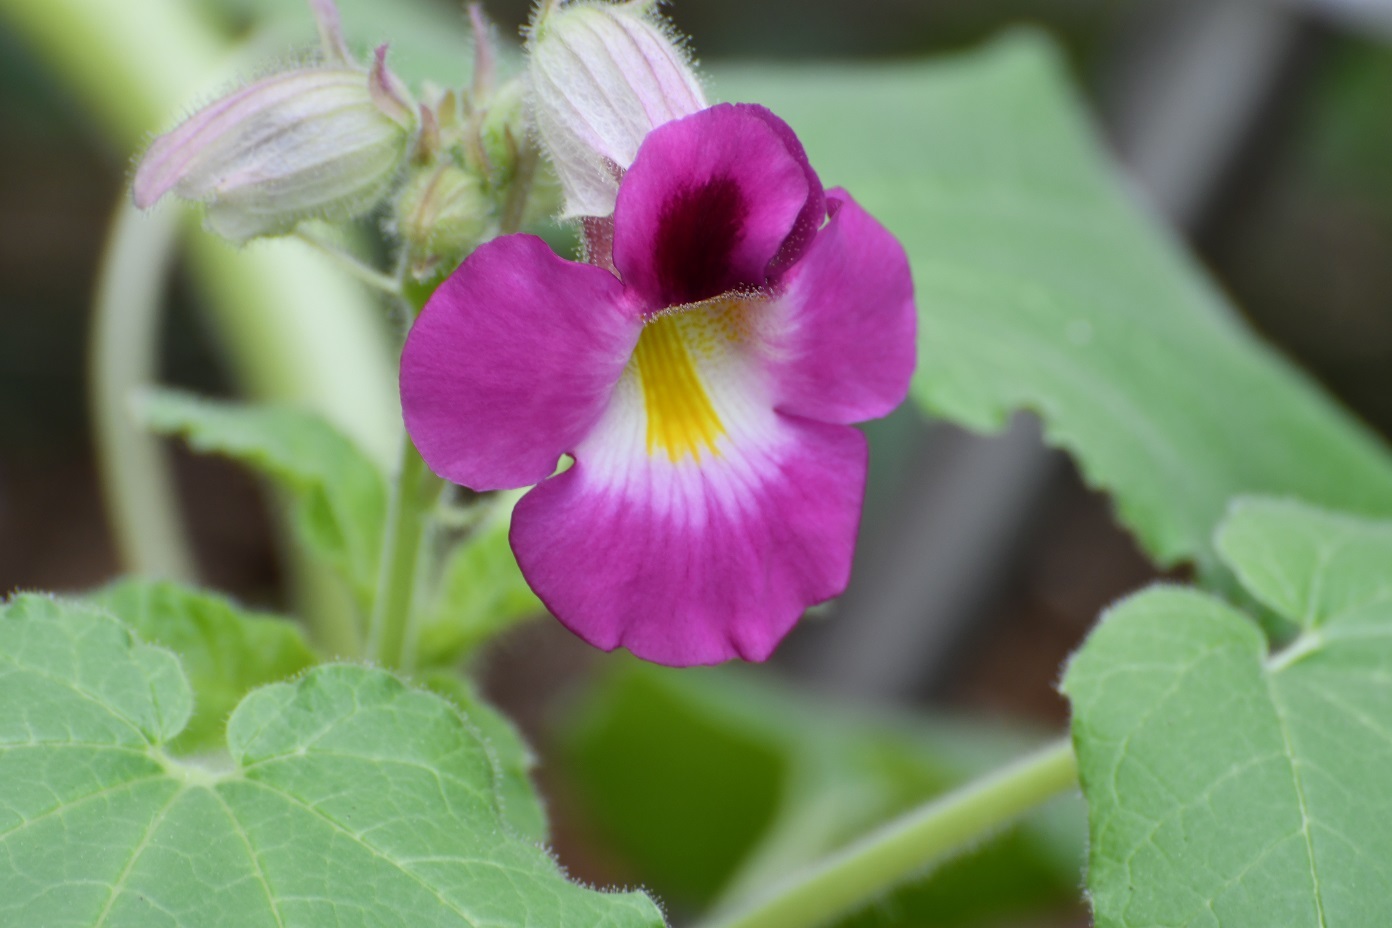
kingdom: Plantae
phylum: Tracheophyta
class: Magnoliopsida
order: Lamiales
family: Martyniaceae
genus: Proboscidea
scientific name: Proboscidea louisianica
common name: Elephant tusks
